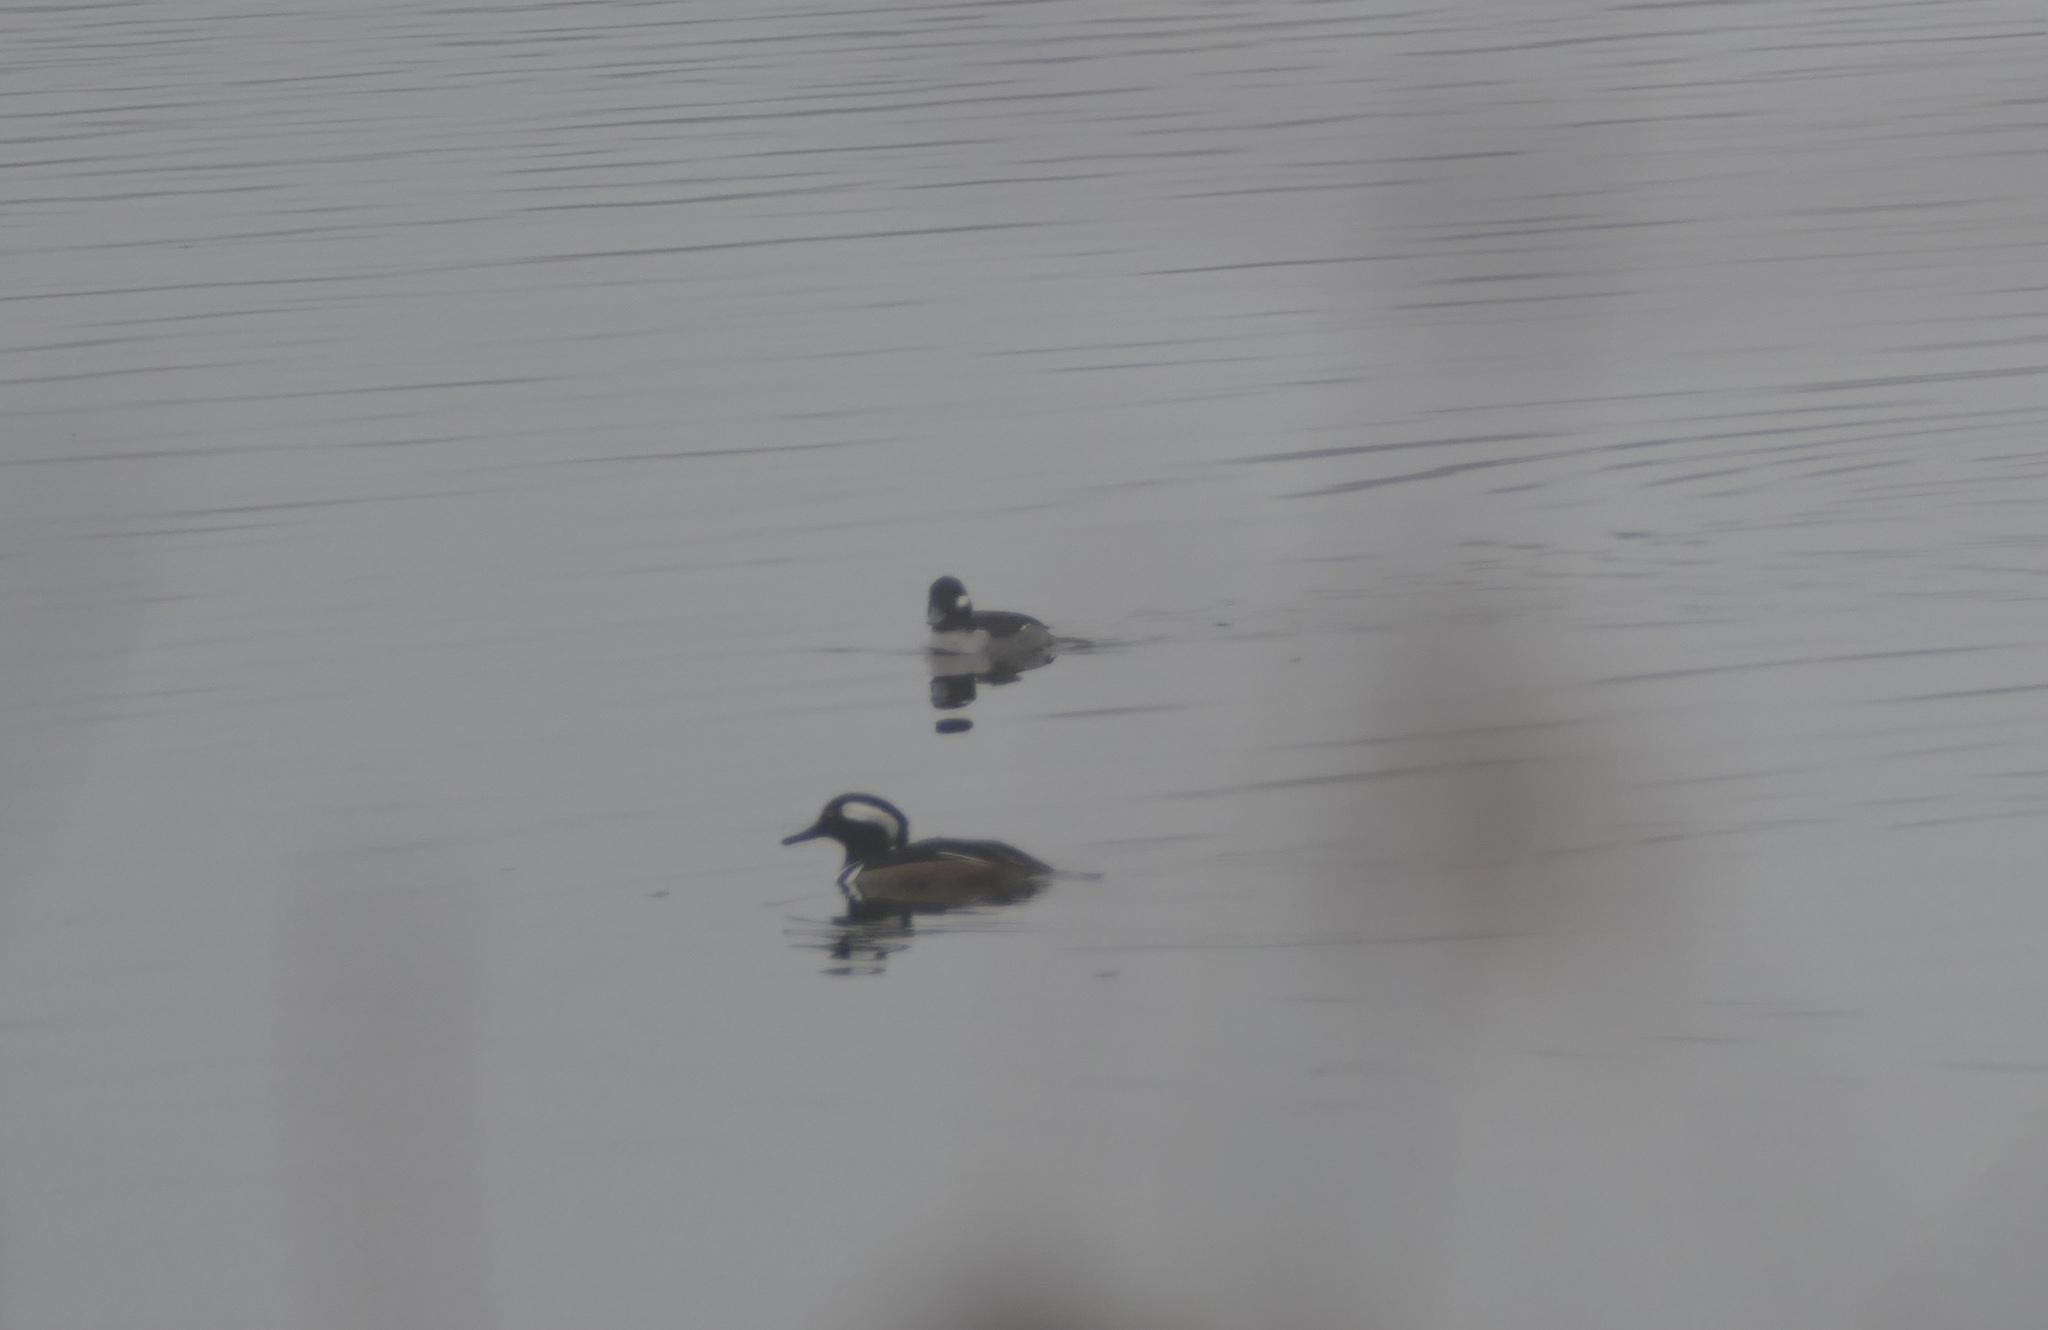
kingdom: Animalia
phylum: Chordata
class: Aves
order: Anseriformes
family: Anatidae
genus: Bucephala
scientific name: Bucephala albeola
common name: Bufflehead
